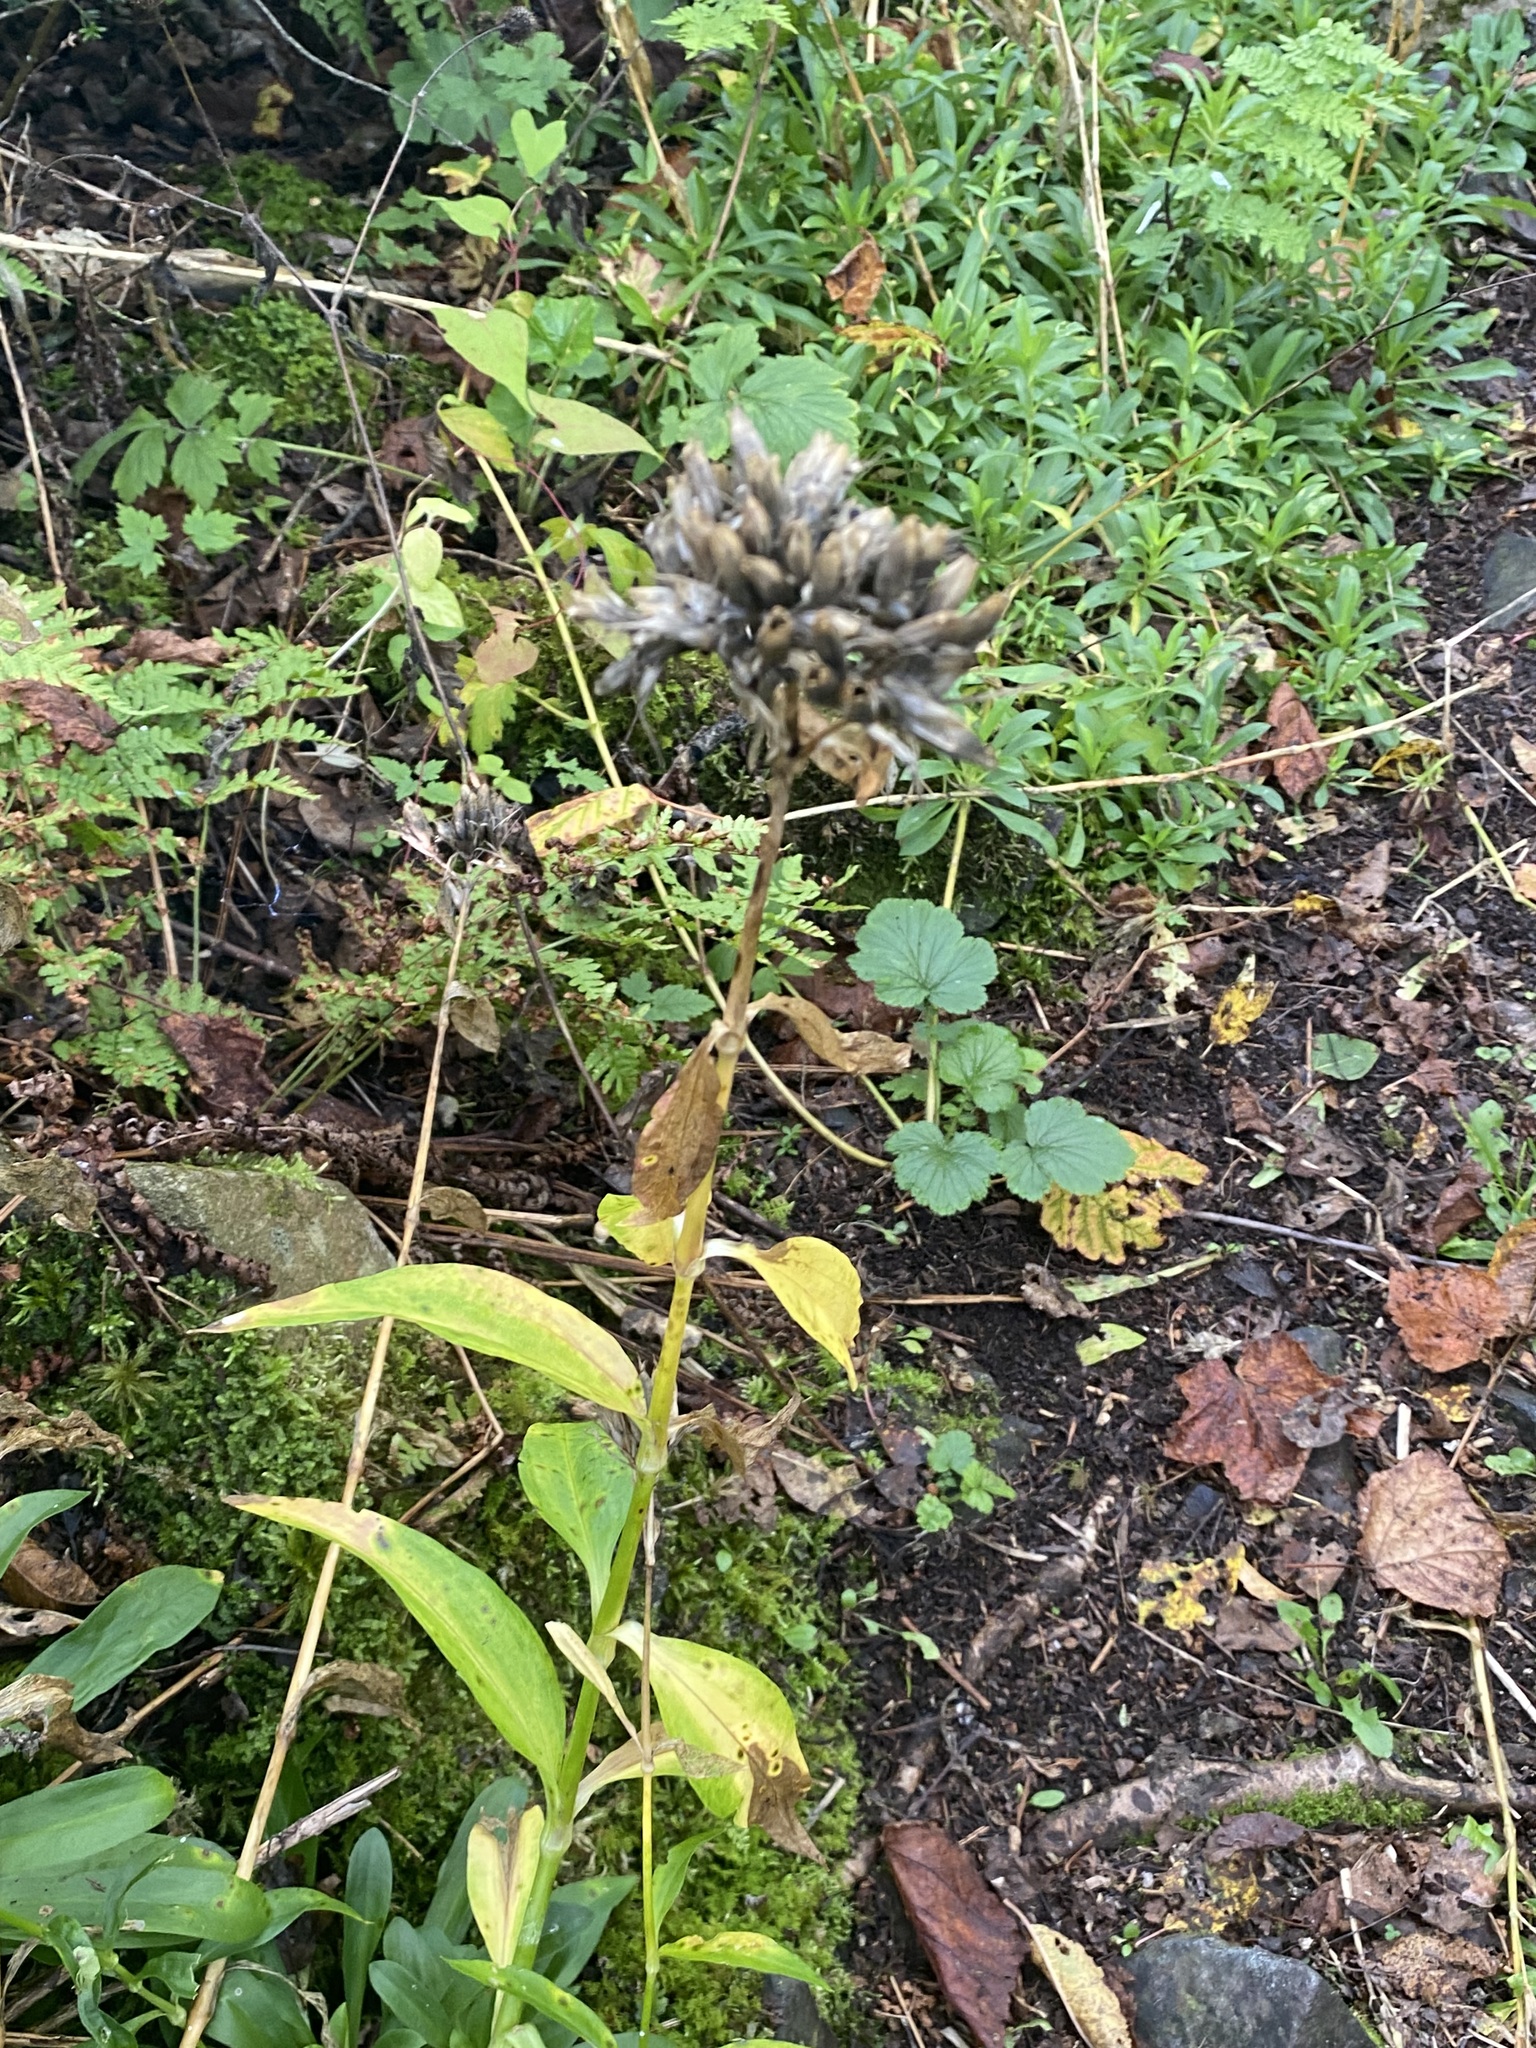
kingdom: Plantae
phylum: Tracheophyta
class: Magnoliopsida
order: Caryophyllales
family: Caryophyllaceae
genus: Saponaria
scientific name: Saponaria officinalis
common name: Soapwort
